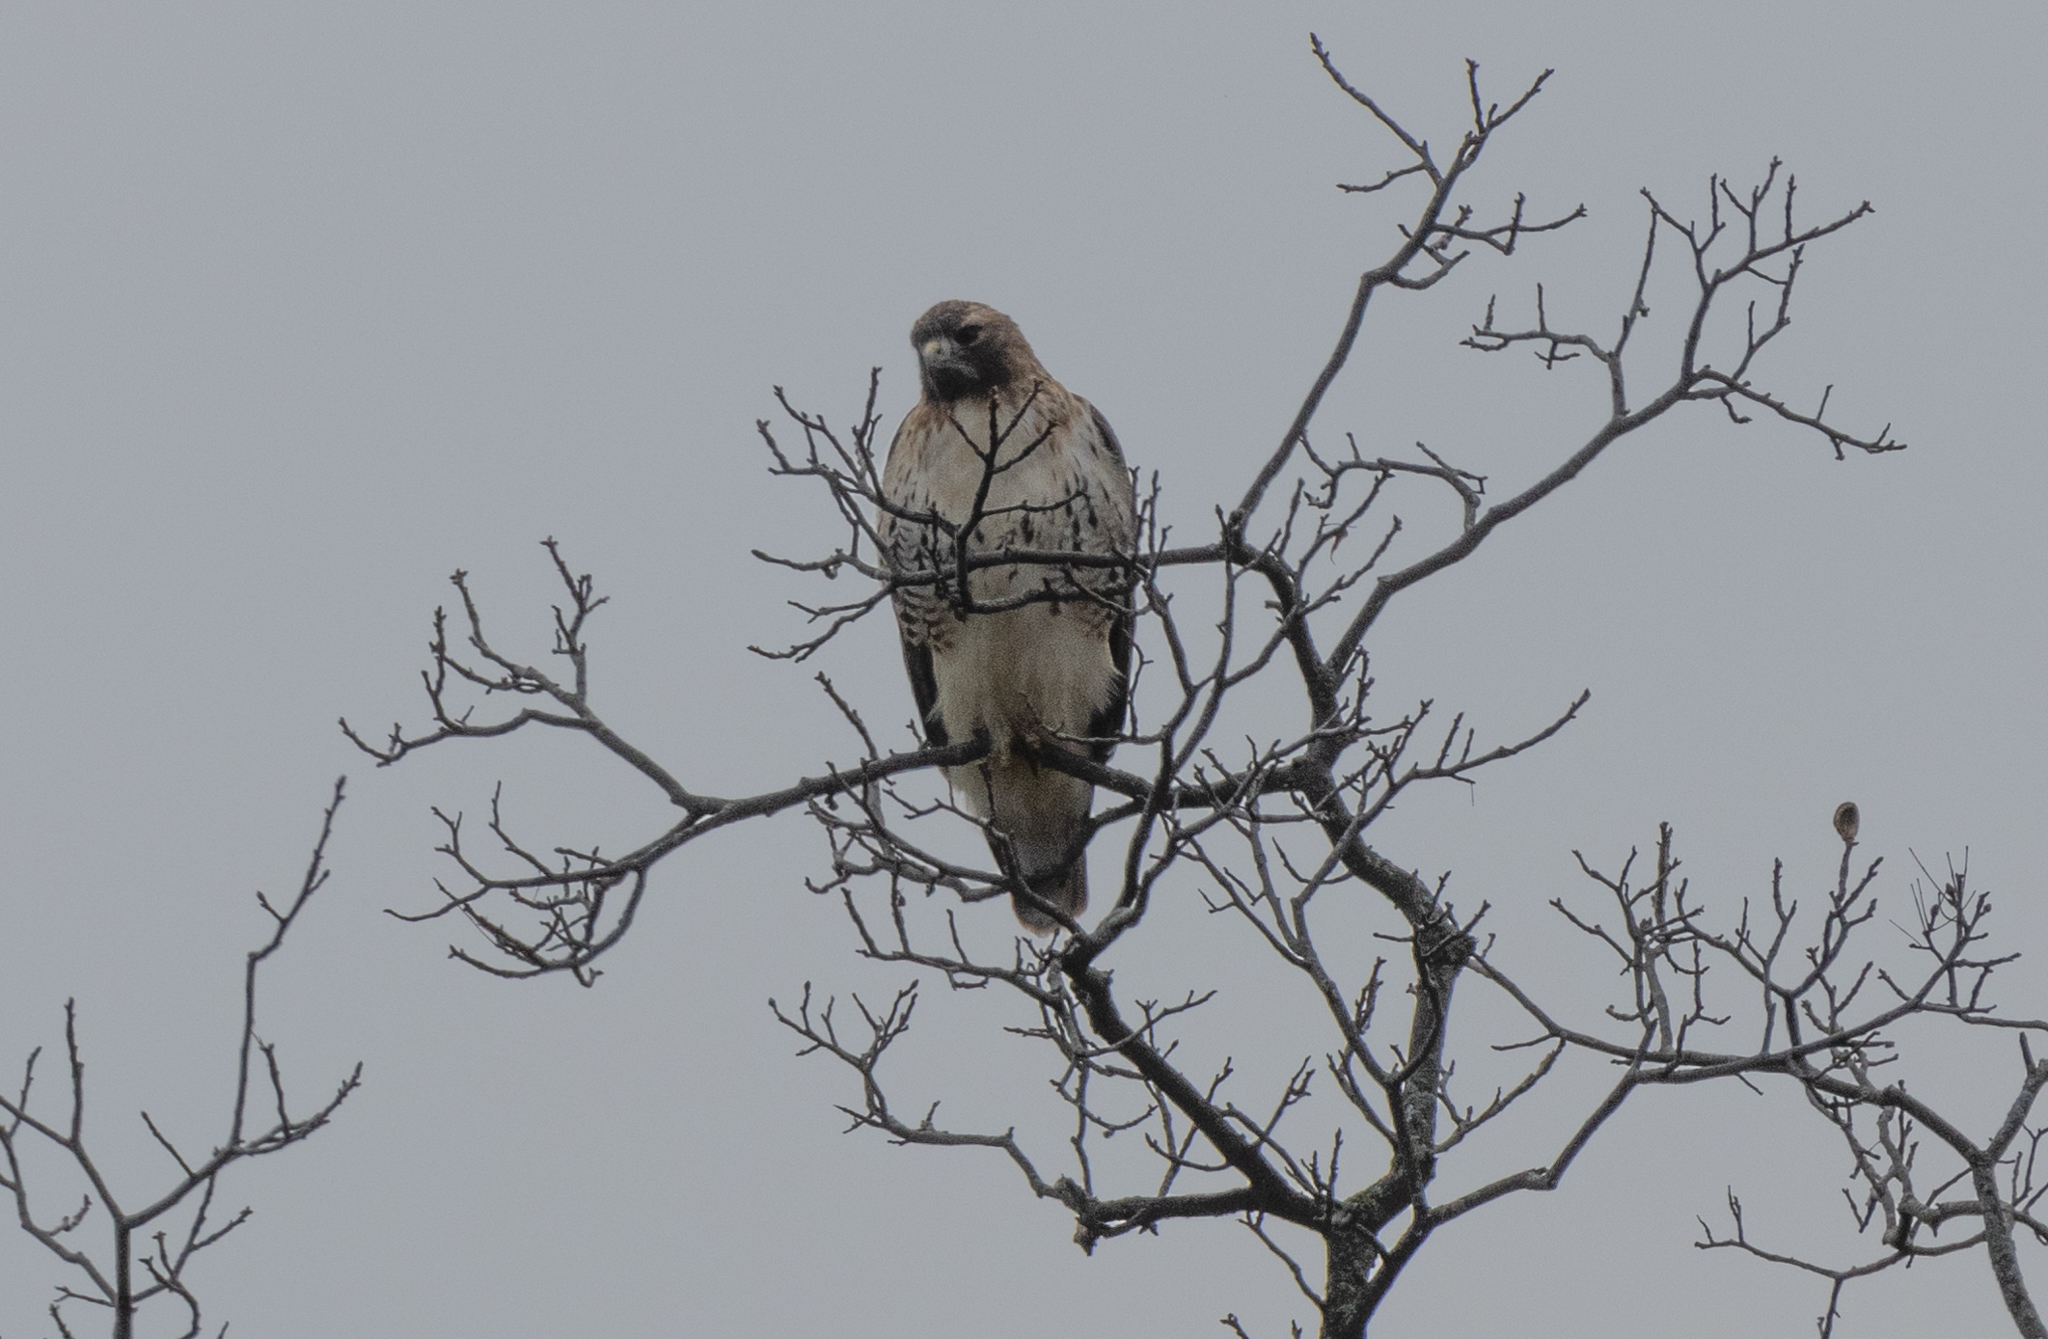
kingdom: Animalia
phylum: Chordata
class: Aves
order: Accipitriformes
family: Accipitridae
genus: Buteo
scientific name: Buteo jamaicensis
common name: Red-tailed hawk
